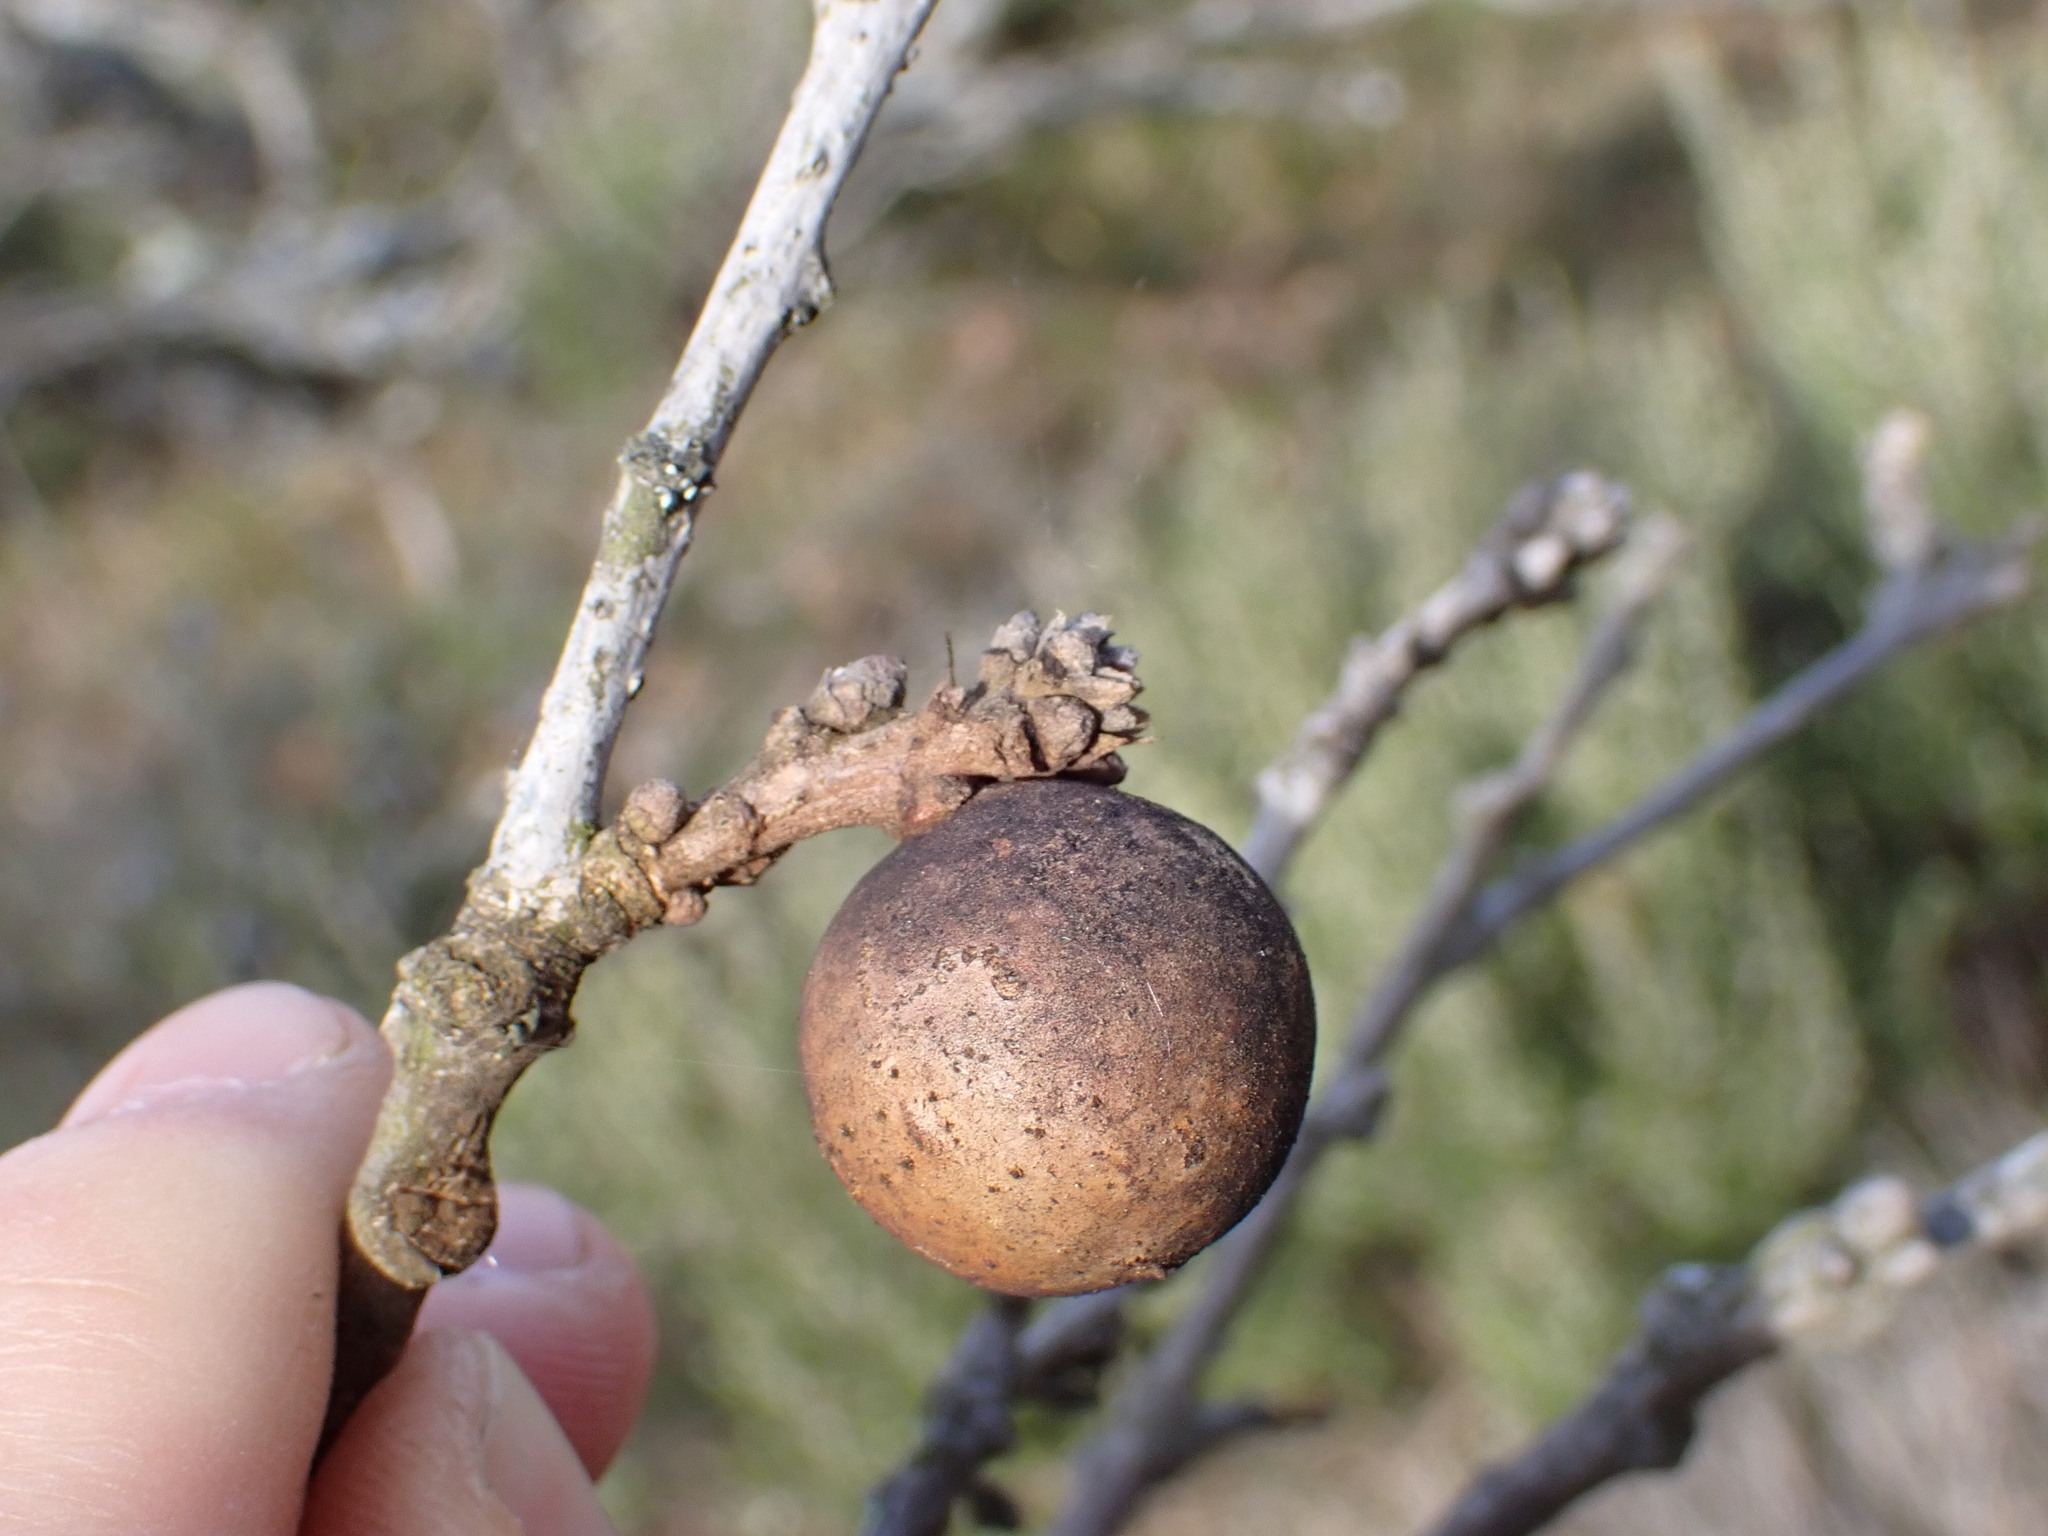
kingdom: Animalia
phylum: Arthropoda
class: Insecta
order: Hymenoptera
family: Cynipidae
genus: Andricus
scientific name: Andricus kollari
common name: Marble gall
